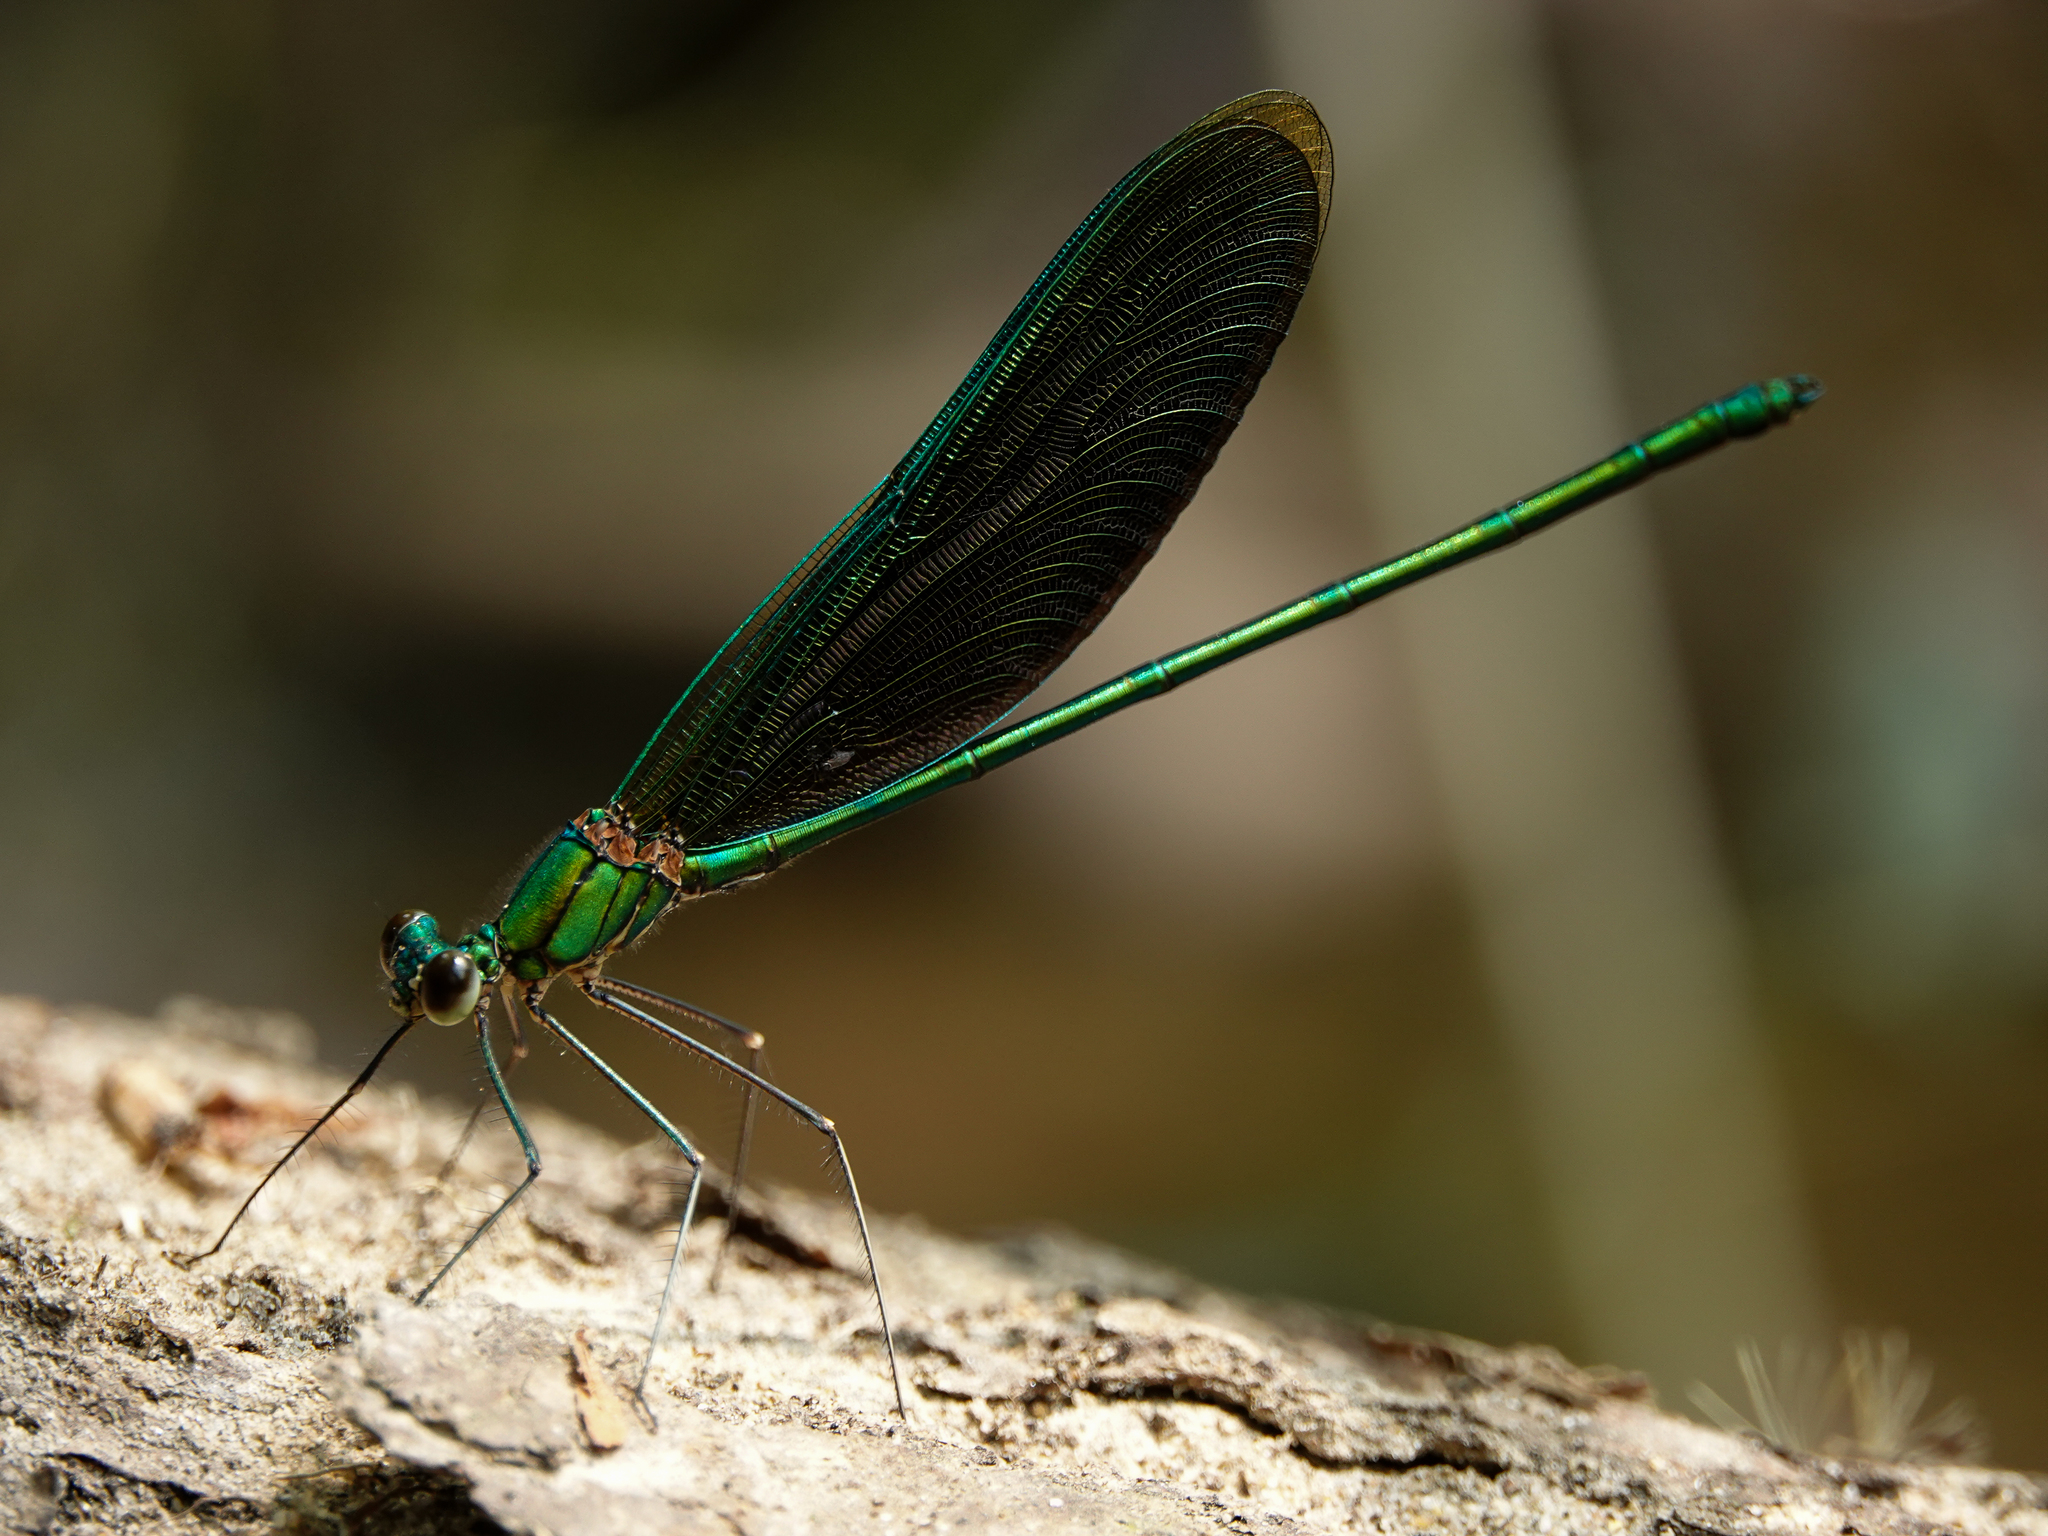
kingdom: Animalia
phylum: Arthropoda
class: Insecta
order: Odonata
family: Calopterygidae
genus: Neurobasis
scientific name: Neurobasis chinensis
